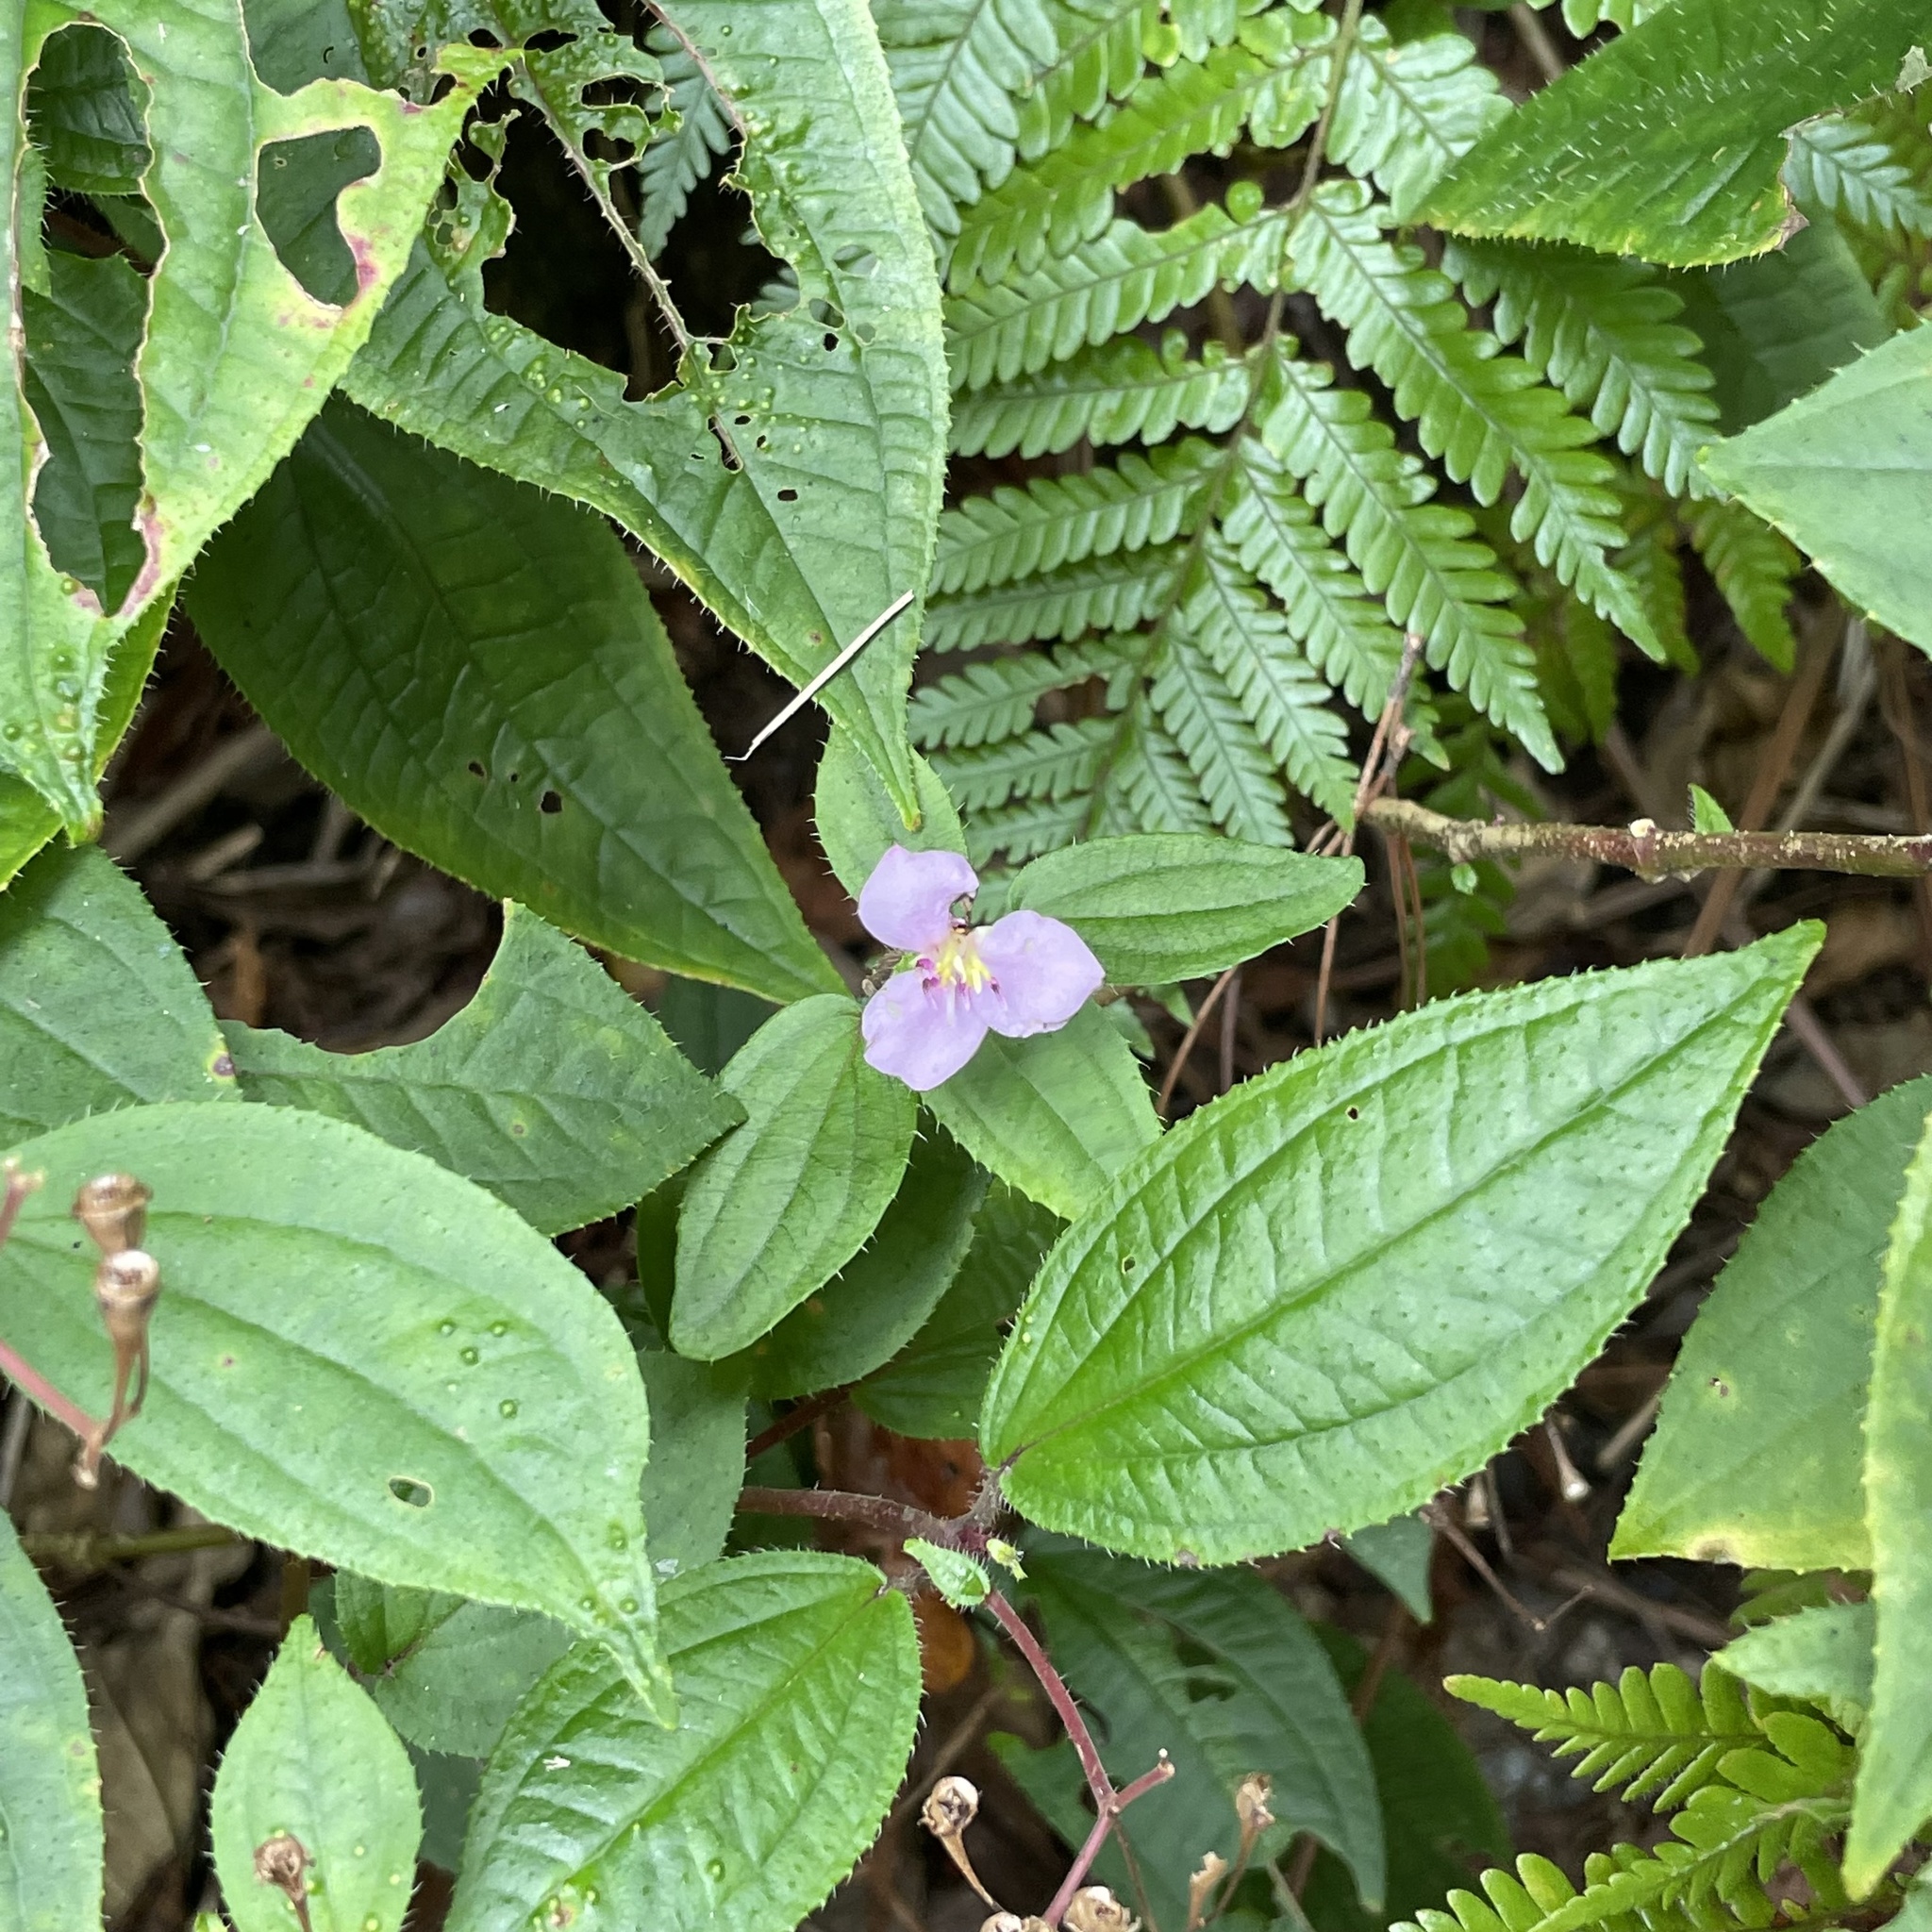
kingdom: Plantae
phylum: Tracheophyta
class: Magnoliopsida
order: Myrtales
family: Melastomataceae
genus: Bredia
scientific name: Bredia hirsuta
